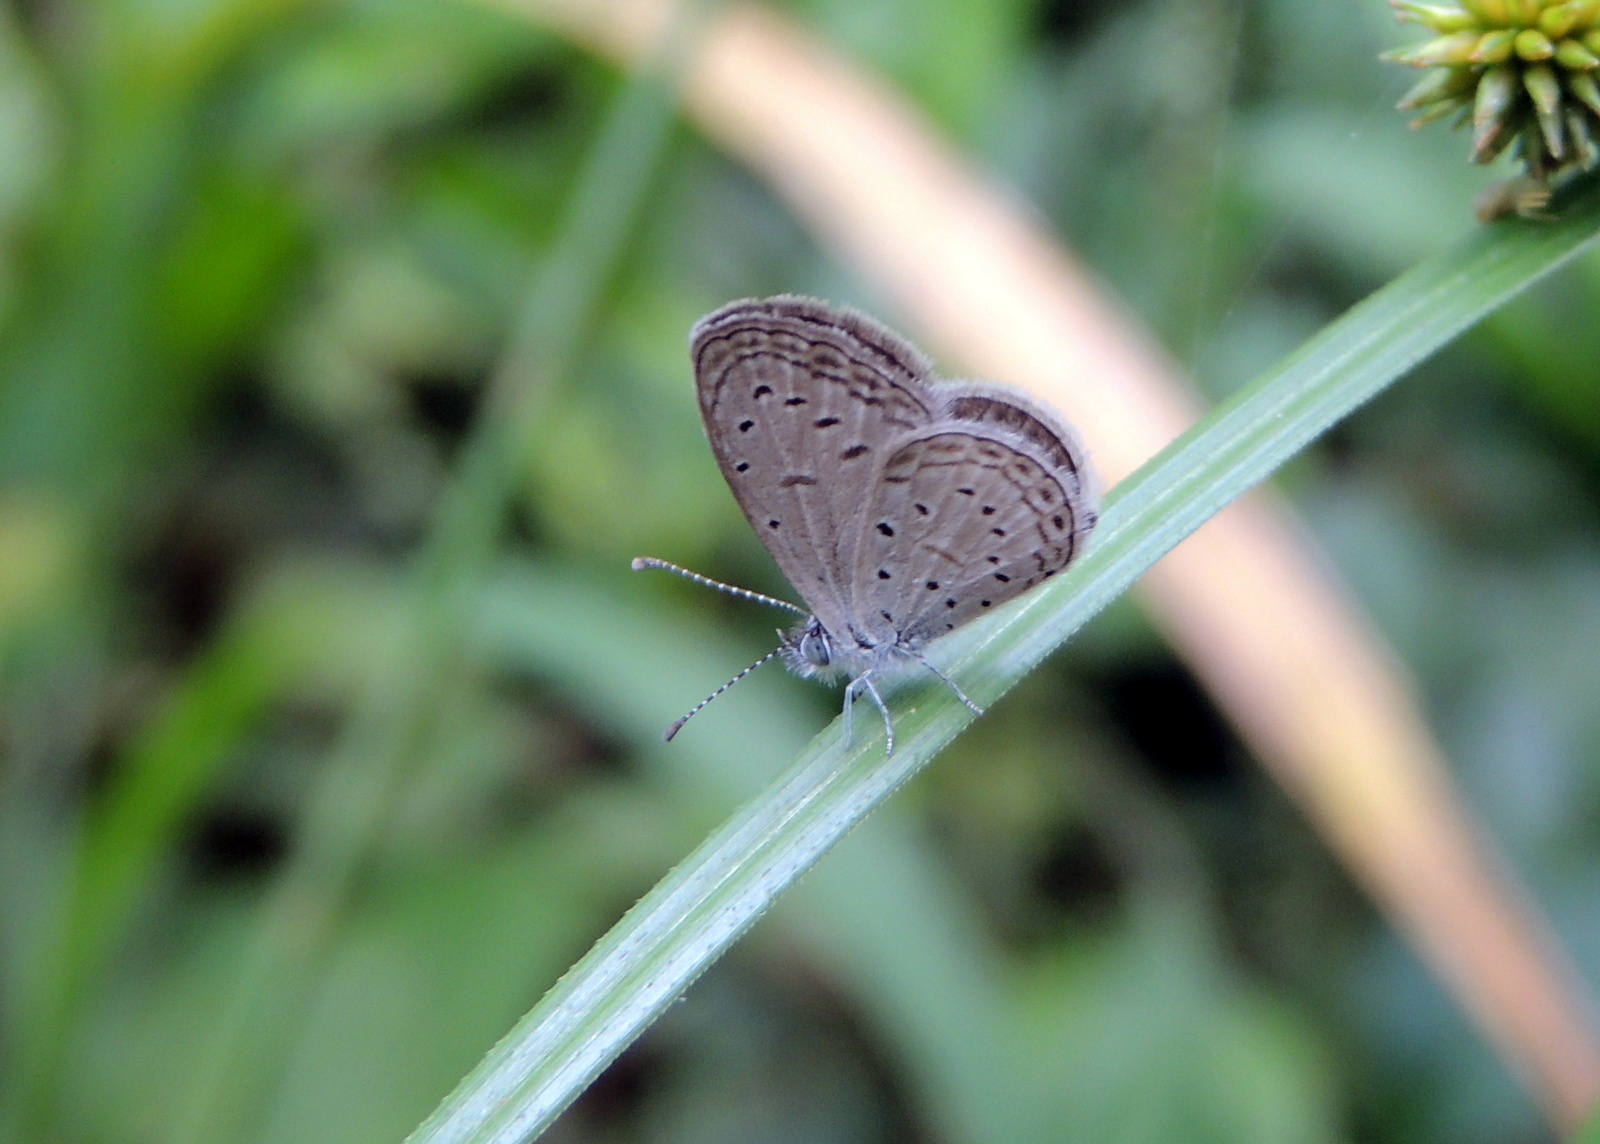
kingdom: Animalia
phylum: Arthropoda
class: Insecta
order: Lepidoptera
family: Lycaenidae
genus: Zizula
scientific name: Zizula hylax
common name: Gaika blue
